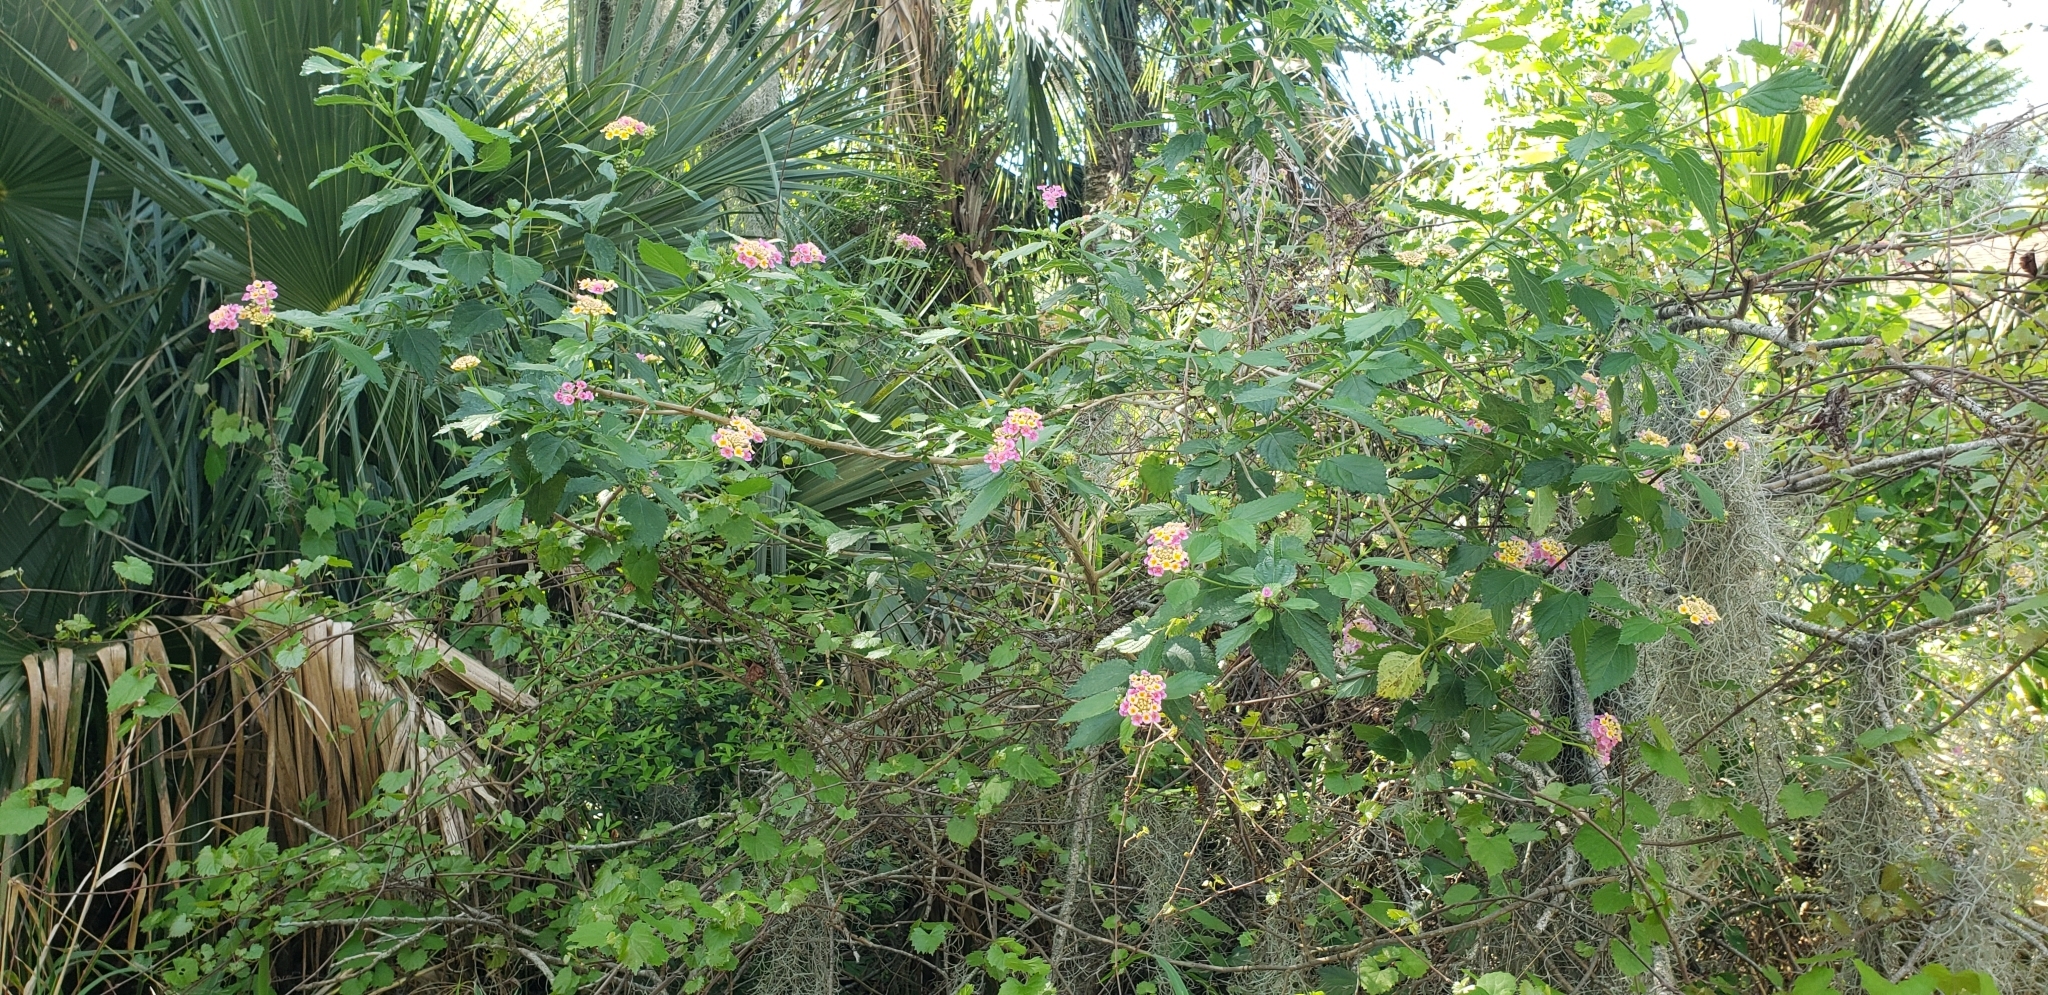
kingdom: Plantae
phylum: Tracheophyta
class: Magnoliopsida
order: Lamiales
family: Verbenaceae
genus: Lantana
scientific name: Lantana strigocamara
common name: Lantana
